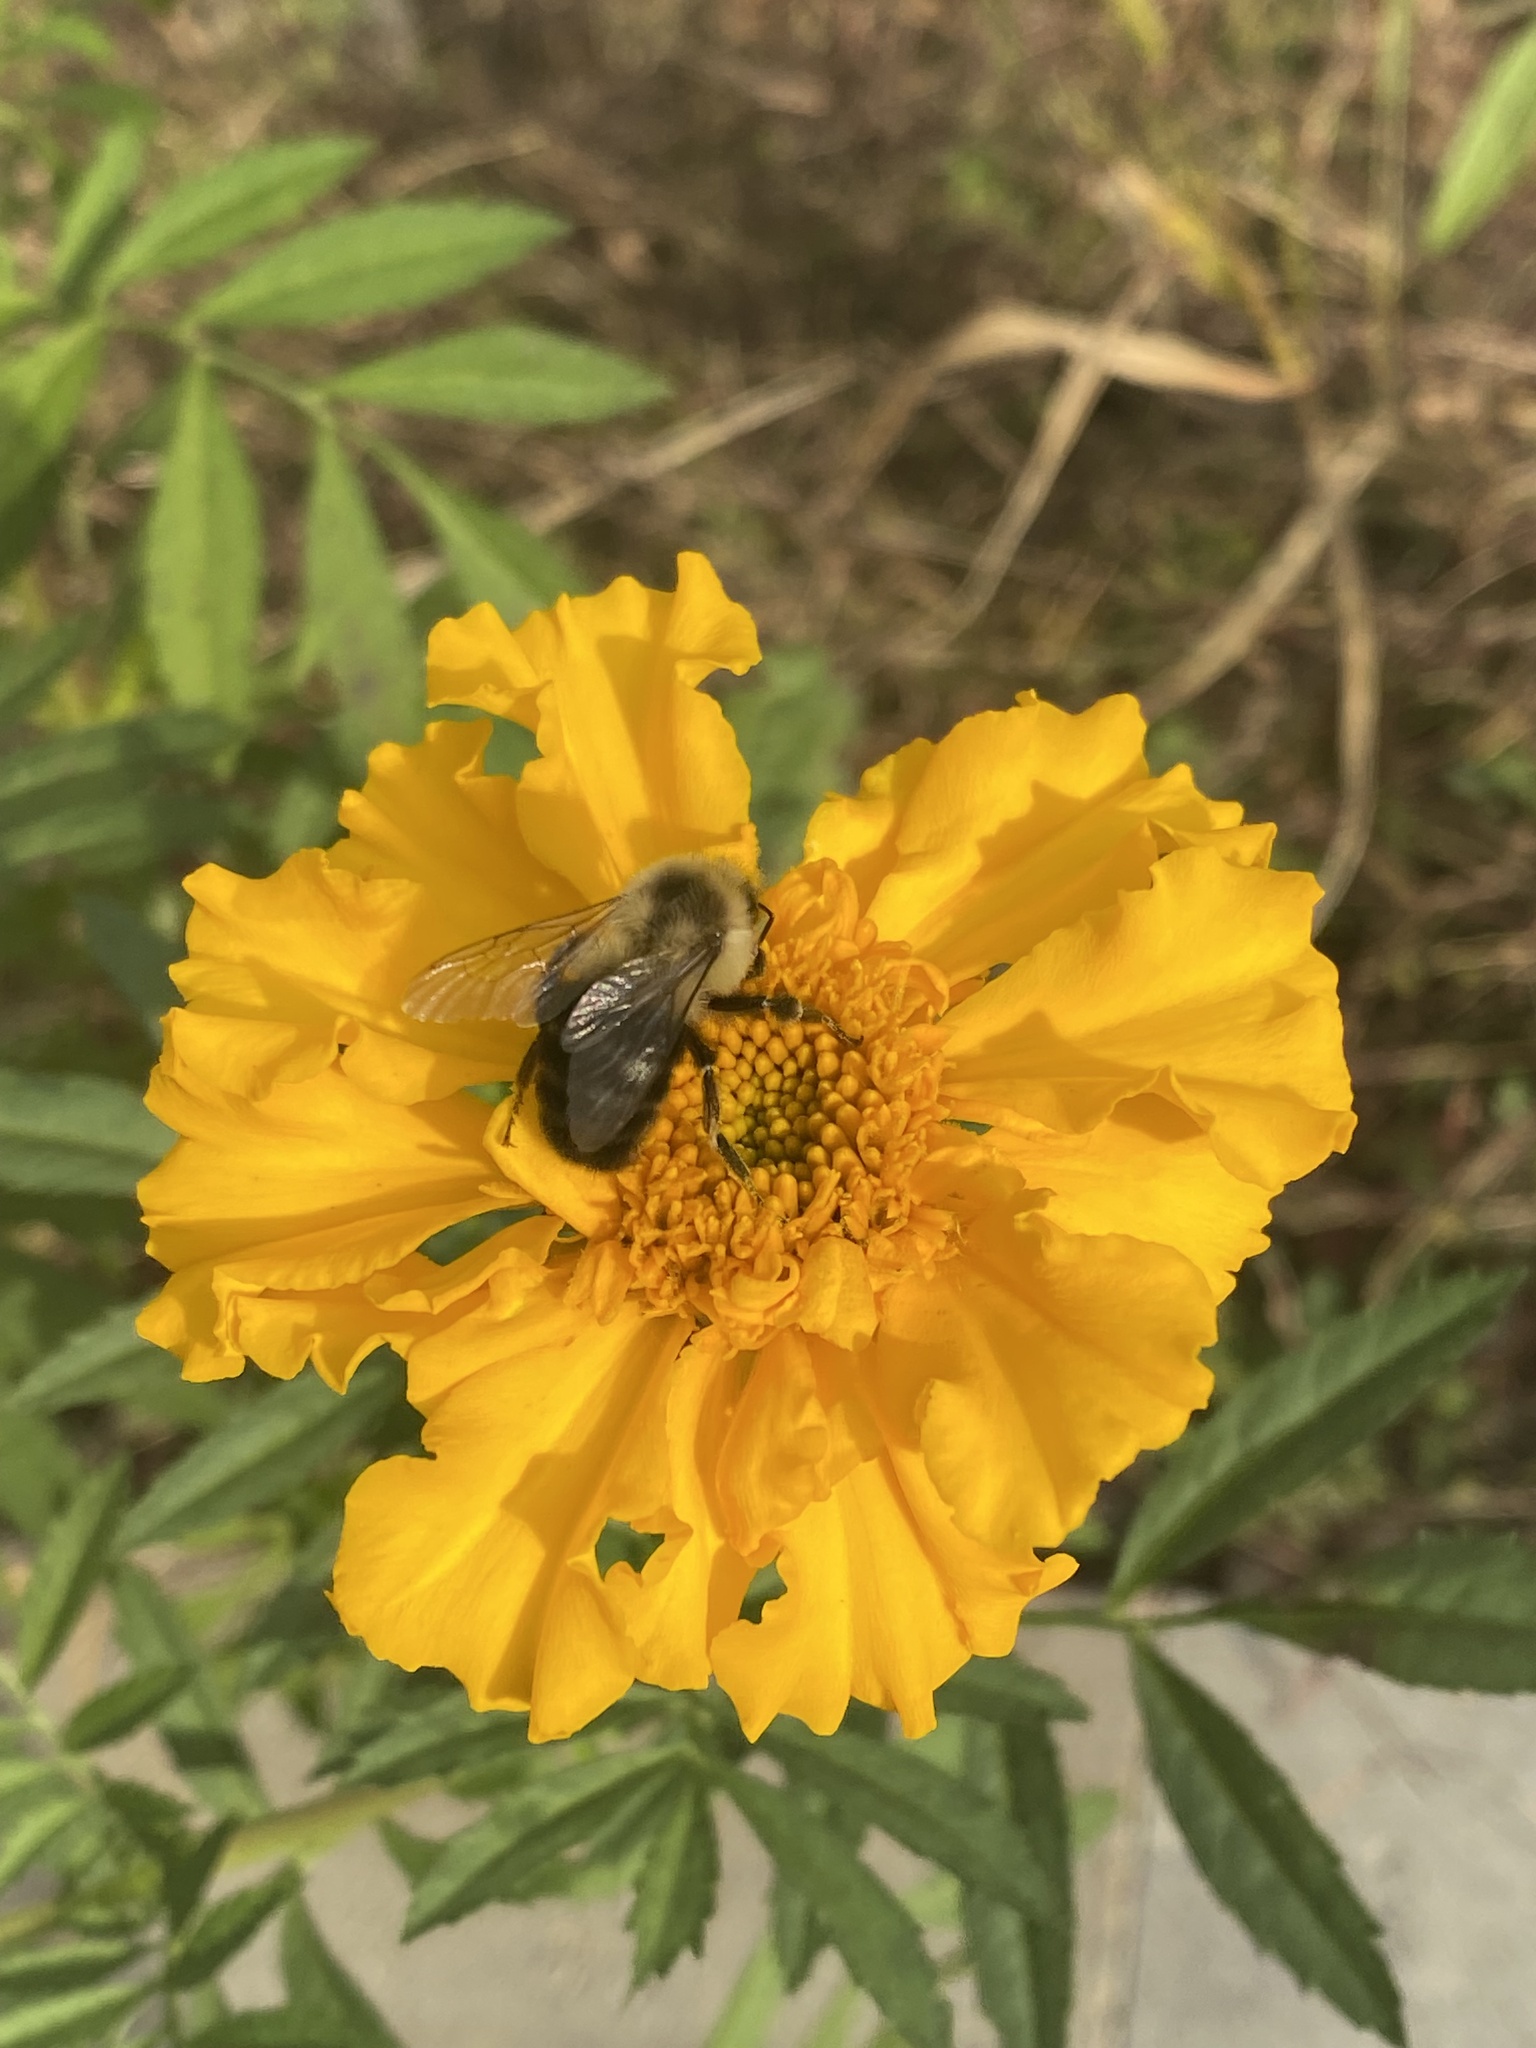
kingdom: Animalia
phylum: Arthropoda
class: Insecta
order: Hymenoptera
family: Apidae
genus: Bombus
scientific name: Bombus impatiens
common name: Common eastern bumble bee
